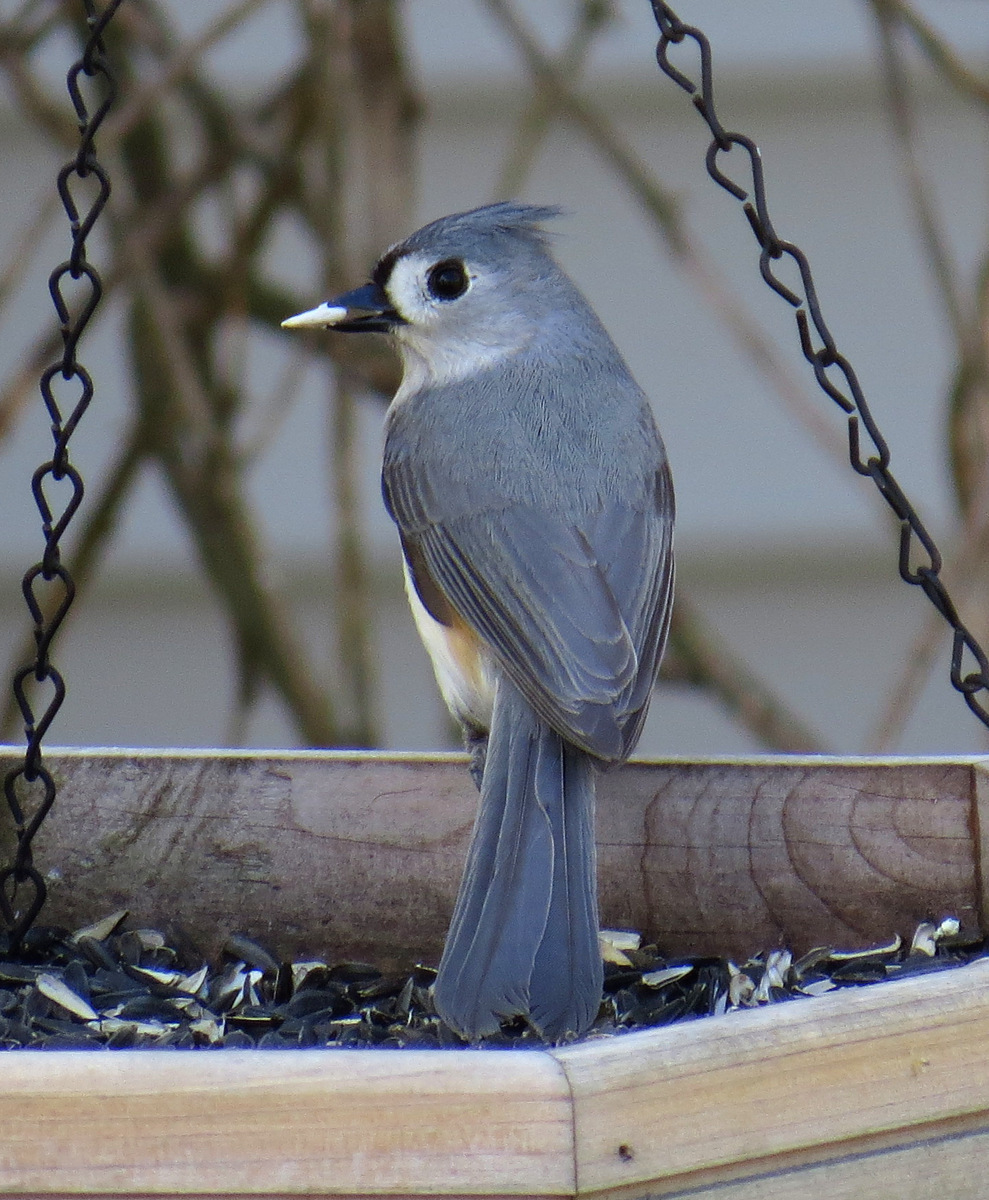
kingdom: Animalia
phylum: Chordata
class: Aves
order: Passeriformes
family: Paridae
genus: Baeolophus
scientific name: Baeolophus bicolor
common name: Tufted titmouse
